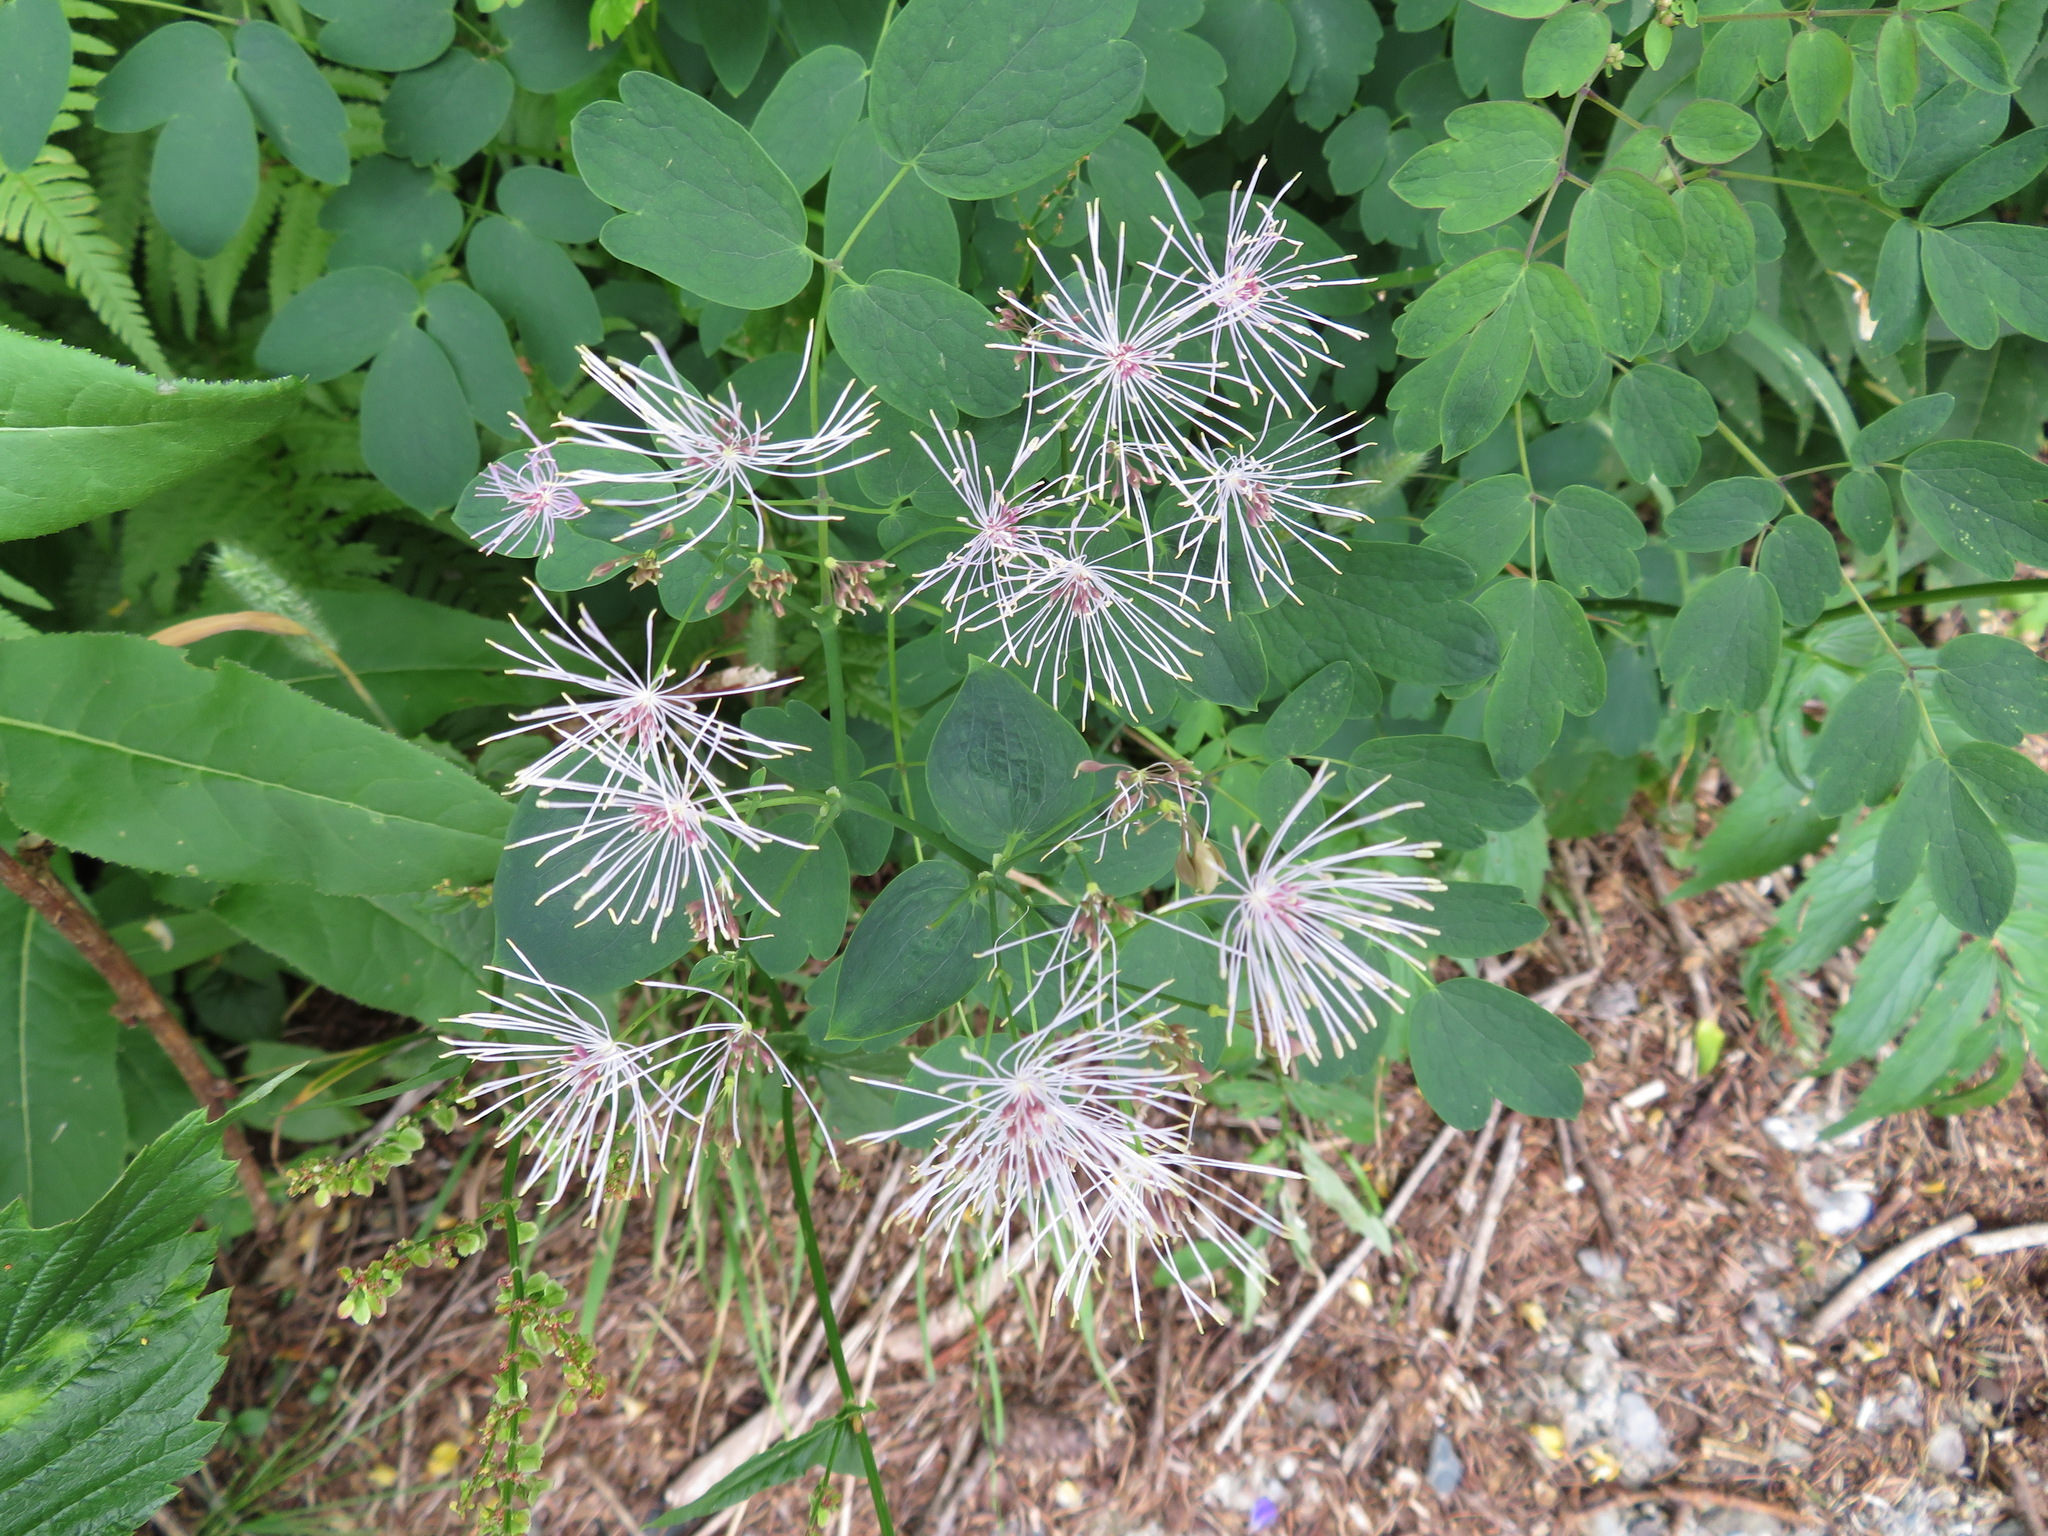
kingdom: Plantae
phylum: Tracheophyta
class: Magnoliopsida
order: Ranunculales
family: Ranunculaceae
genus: Thalictrum
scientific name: Thalictrum aquilegiifolium
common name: French meadow-rue
